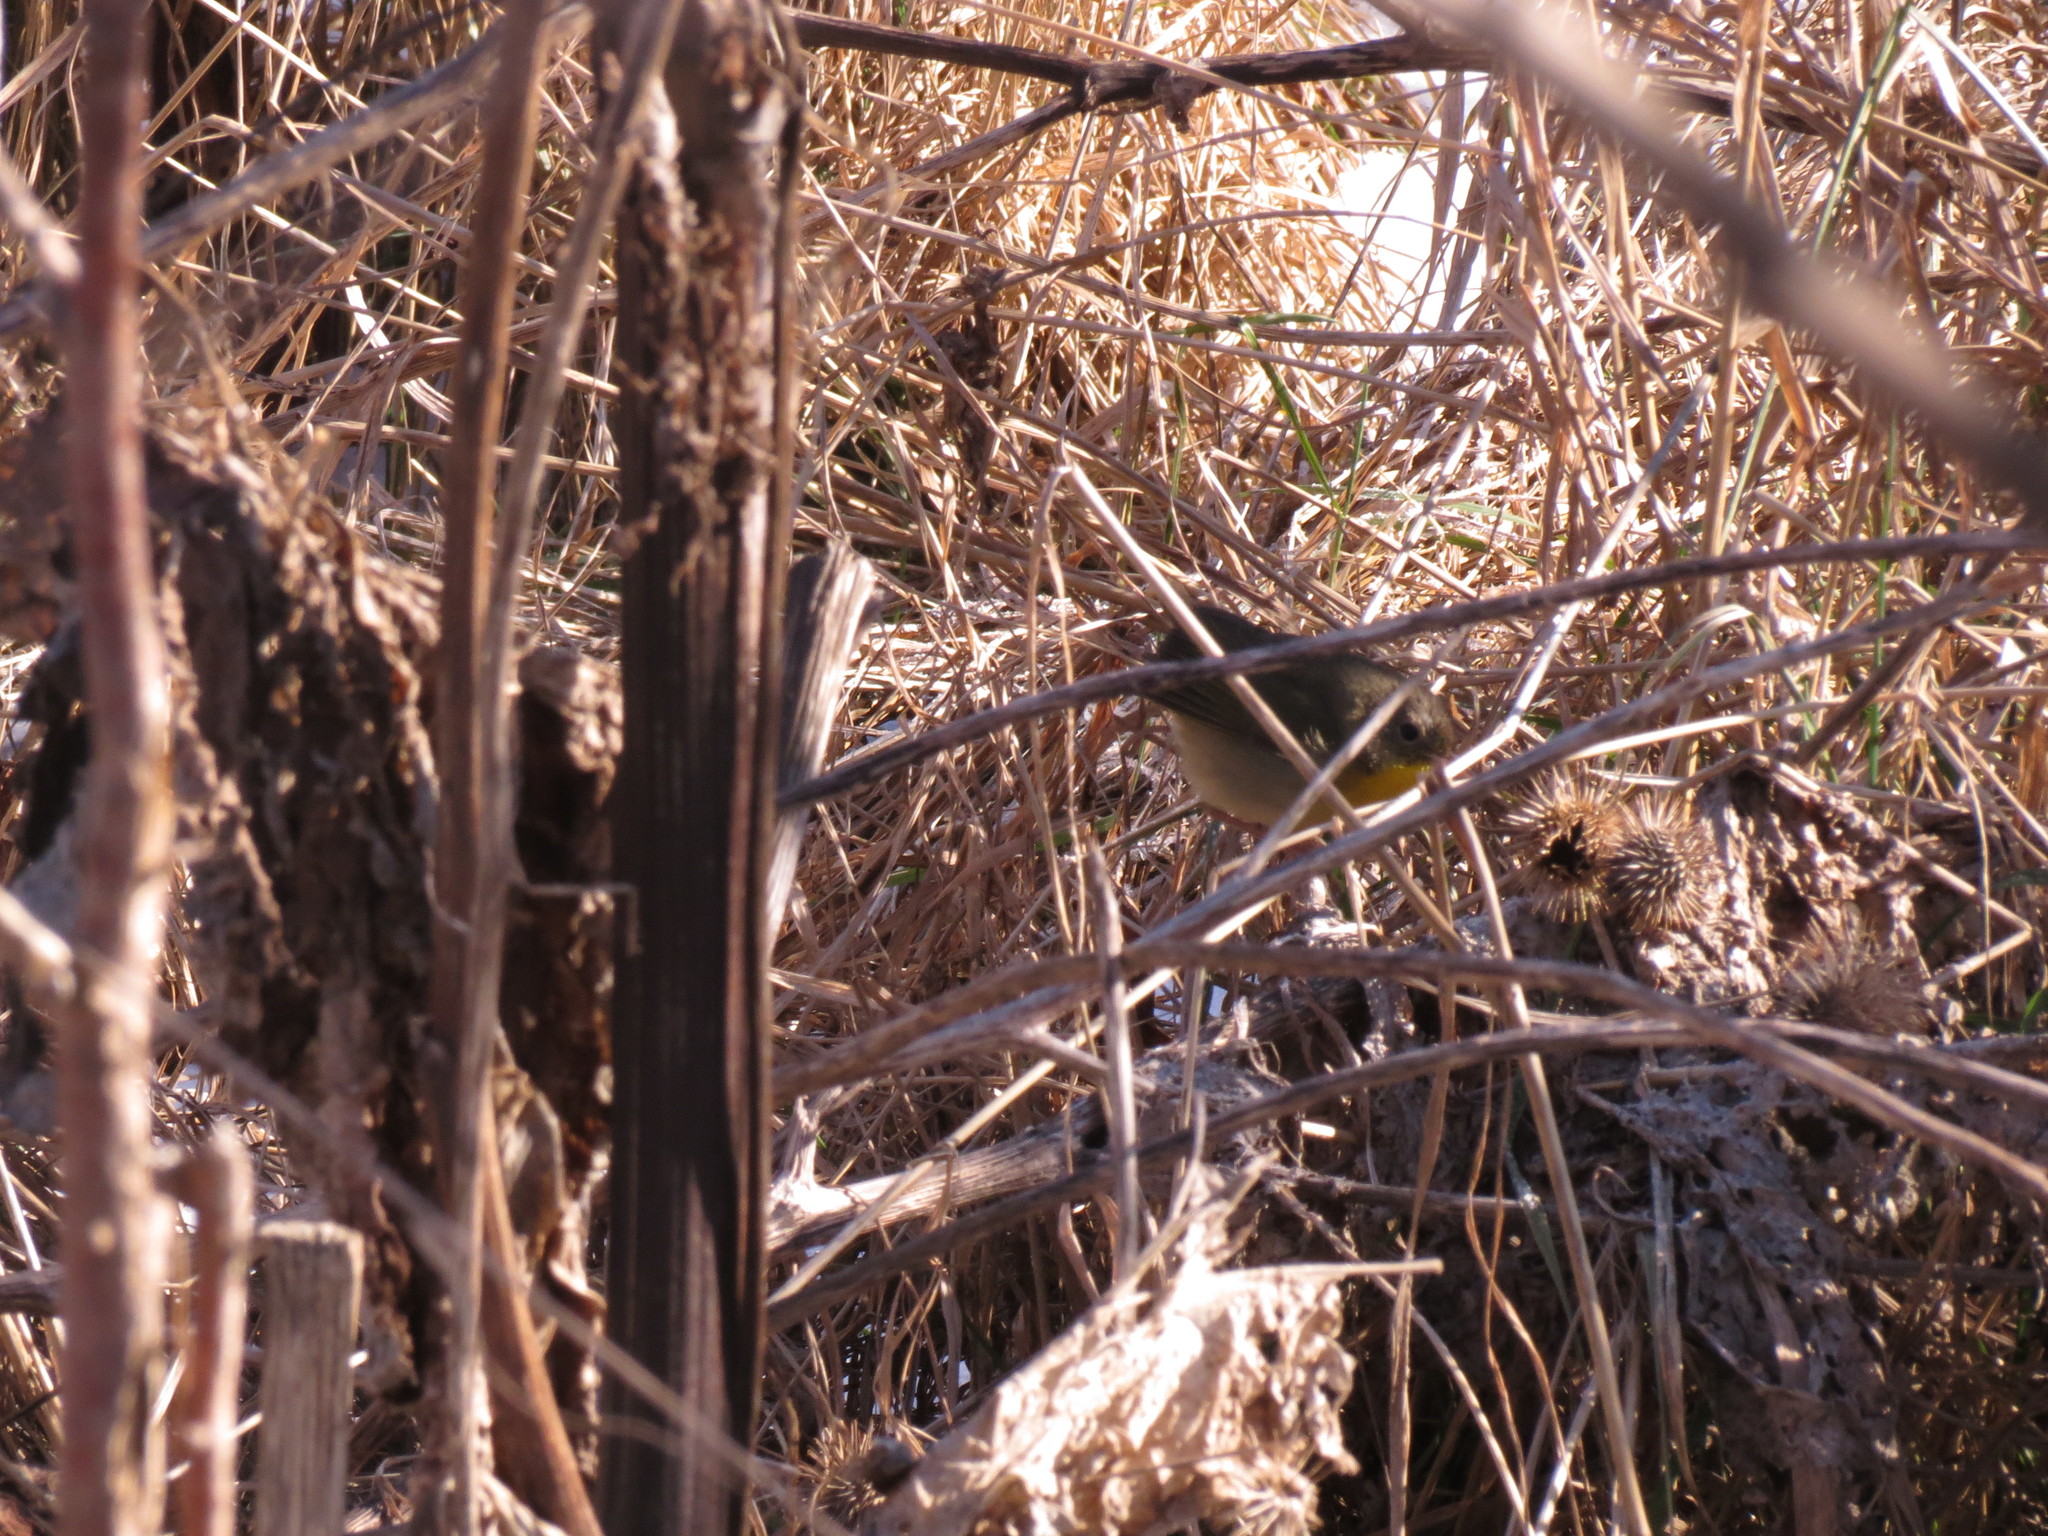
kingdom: Animalia
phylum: Chordata
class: Aves
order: Passeriformes
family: Parulidae
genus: Geothlypis
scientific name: Geothlypis trichas
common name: Common yellowthroat
